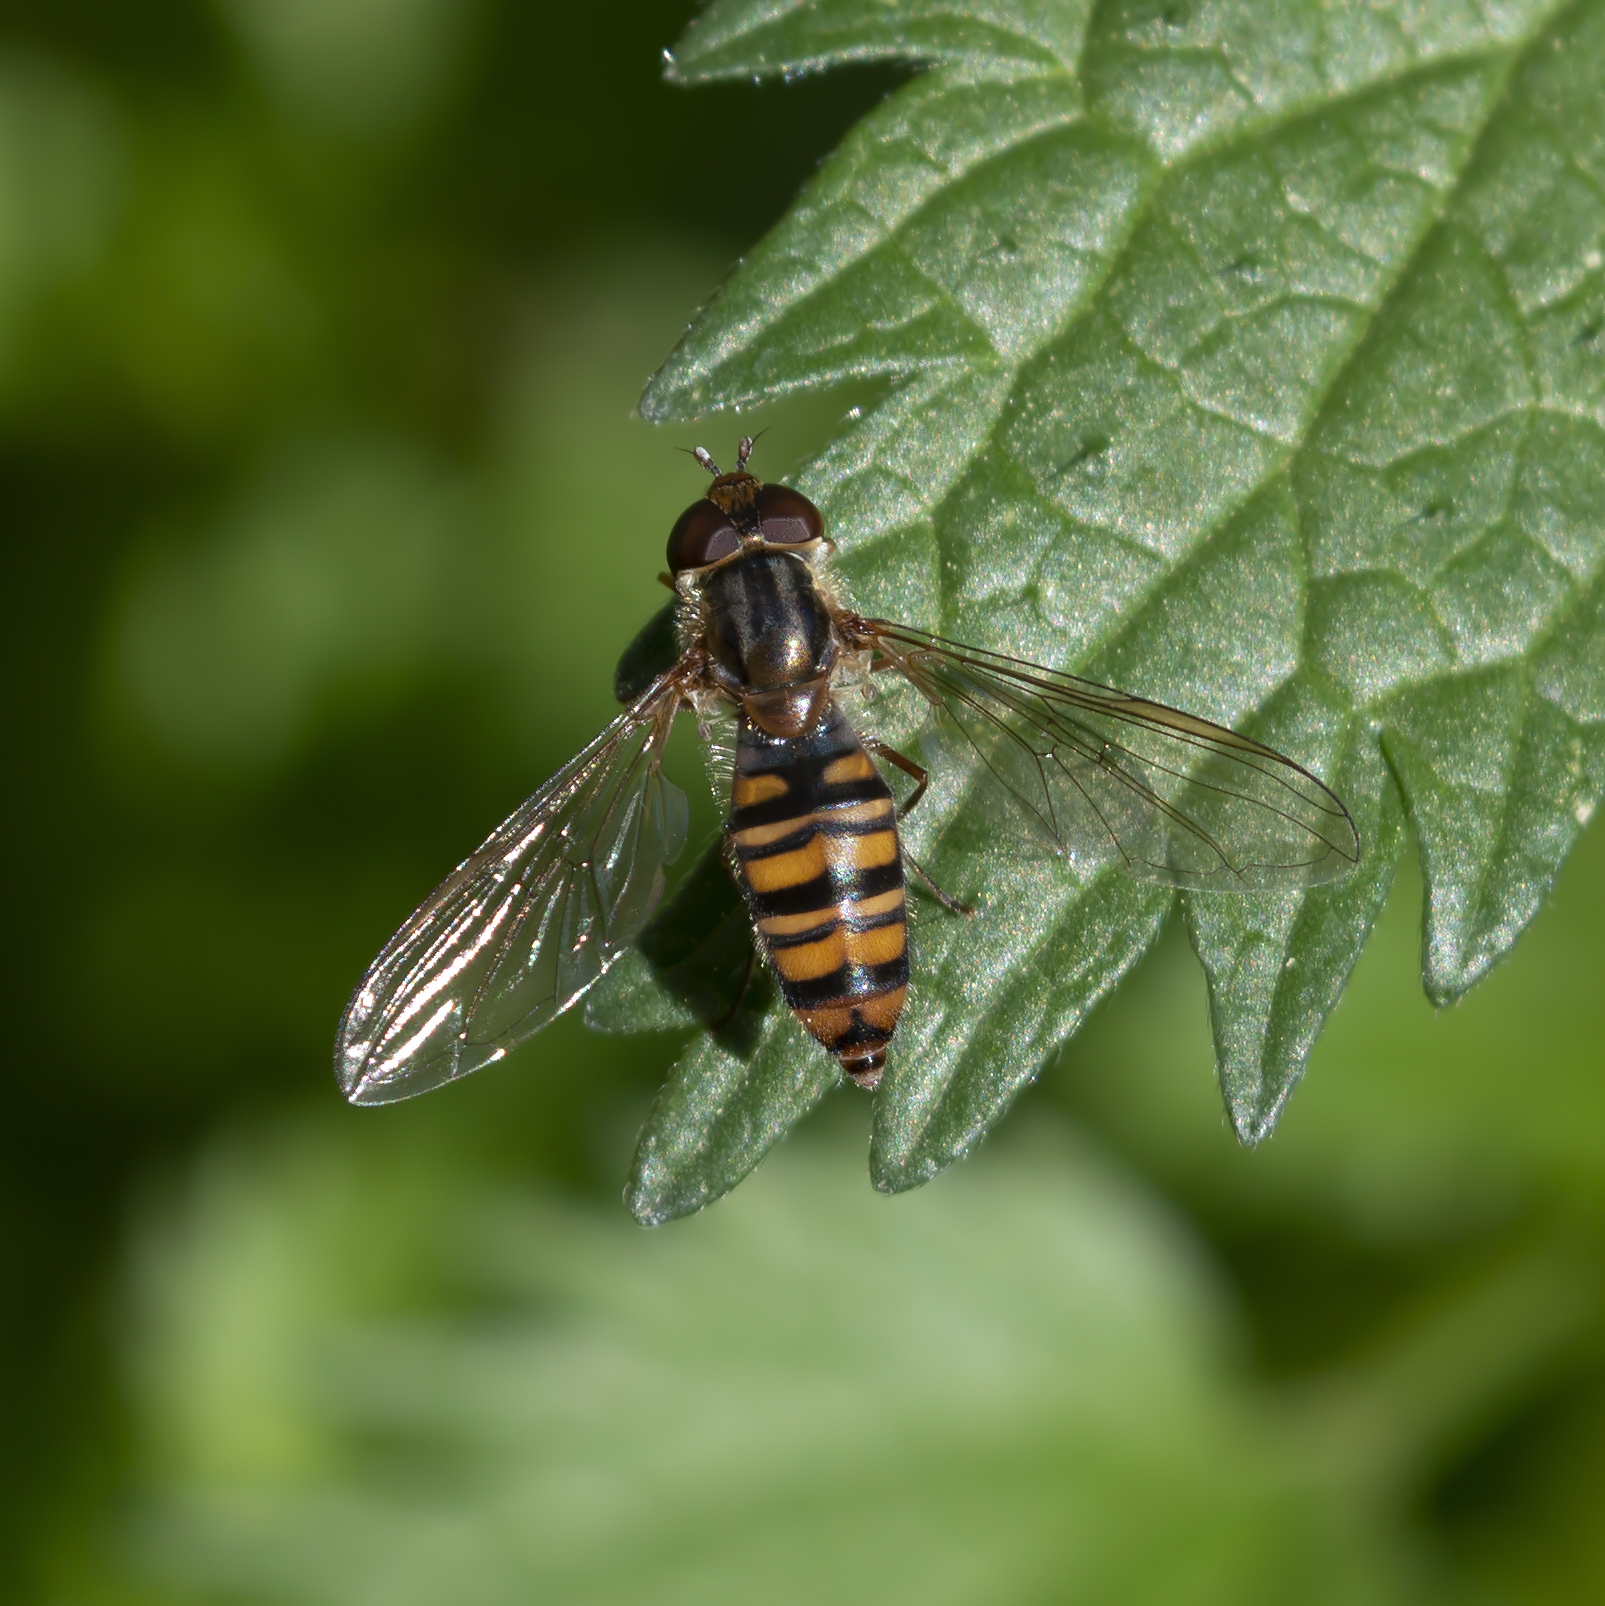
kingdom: Animalia
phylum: Arthropoda
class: Insecta
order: Diptera
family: Syrphidae
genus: Episyrphus
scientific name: Episyrphus balteatus
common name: Marmalade hoverfly
